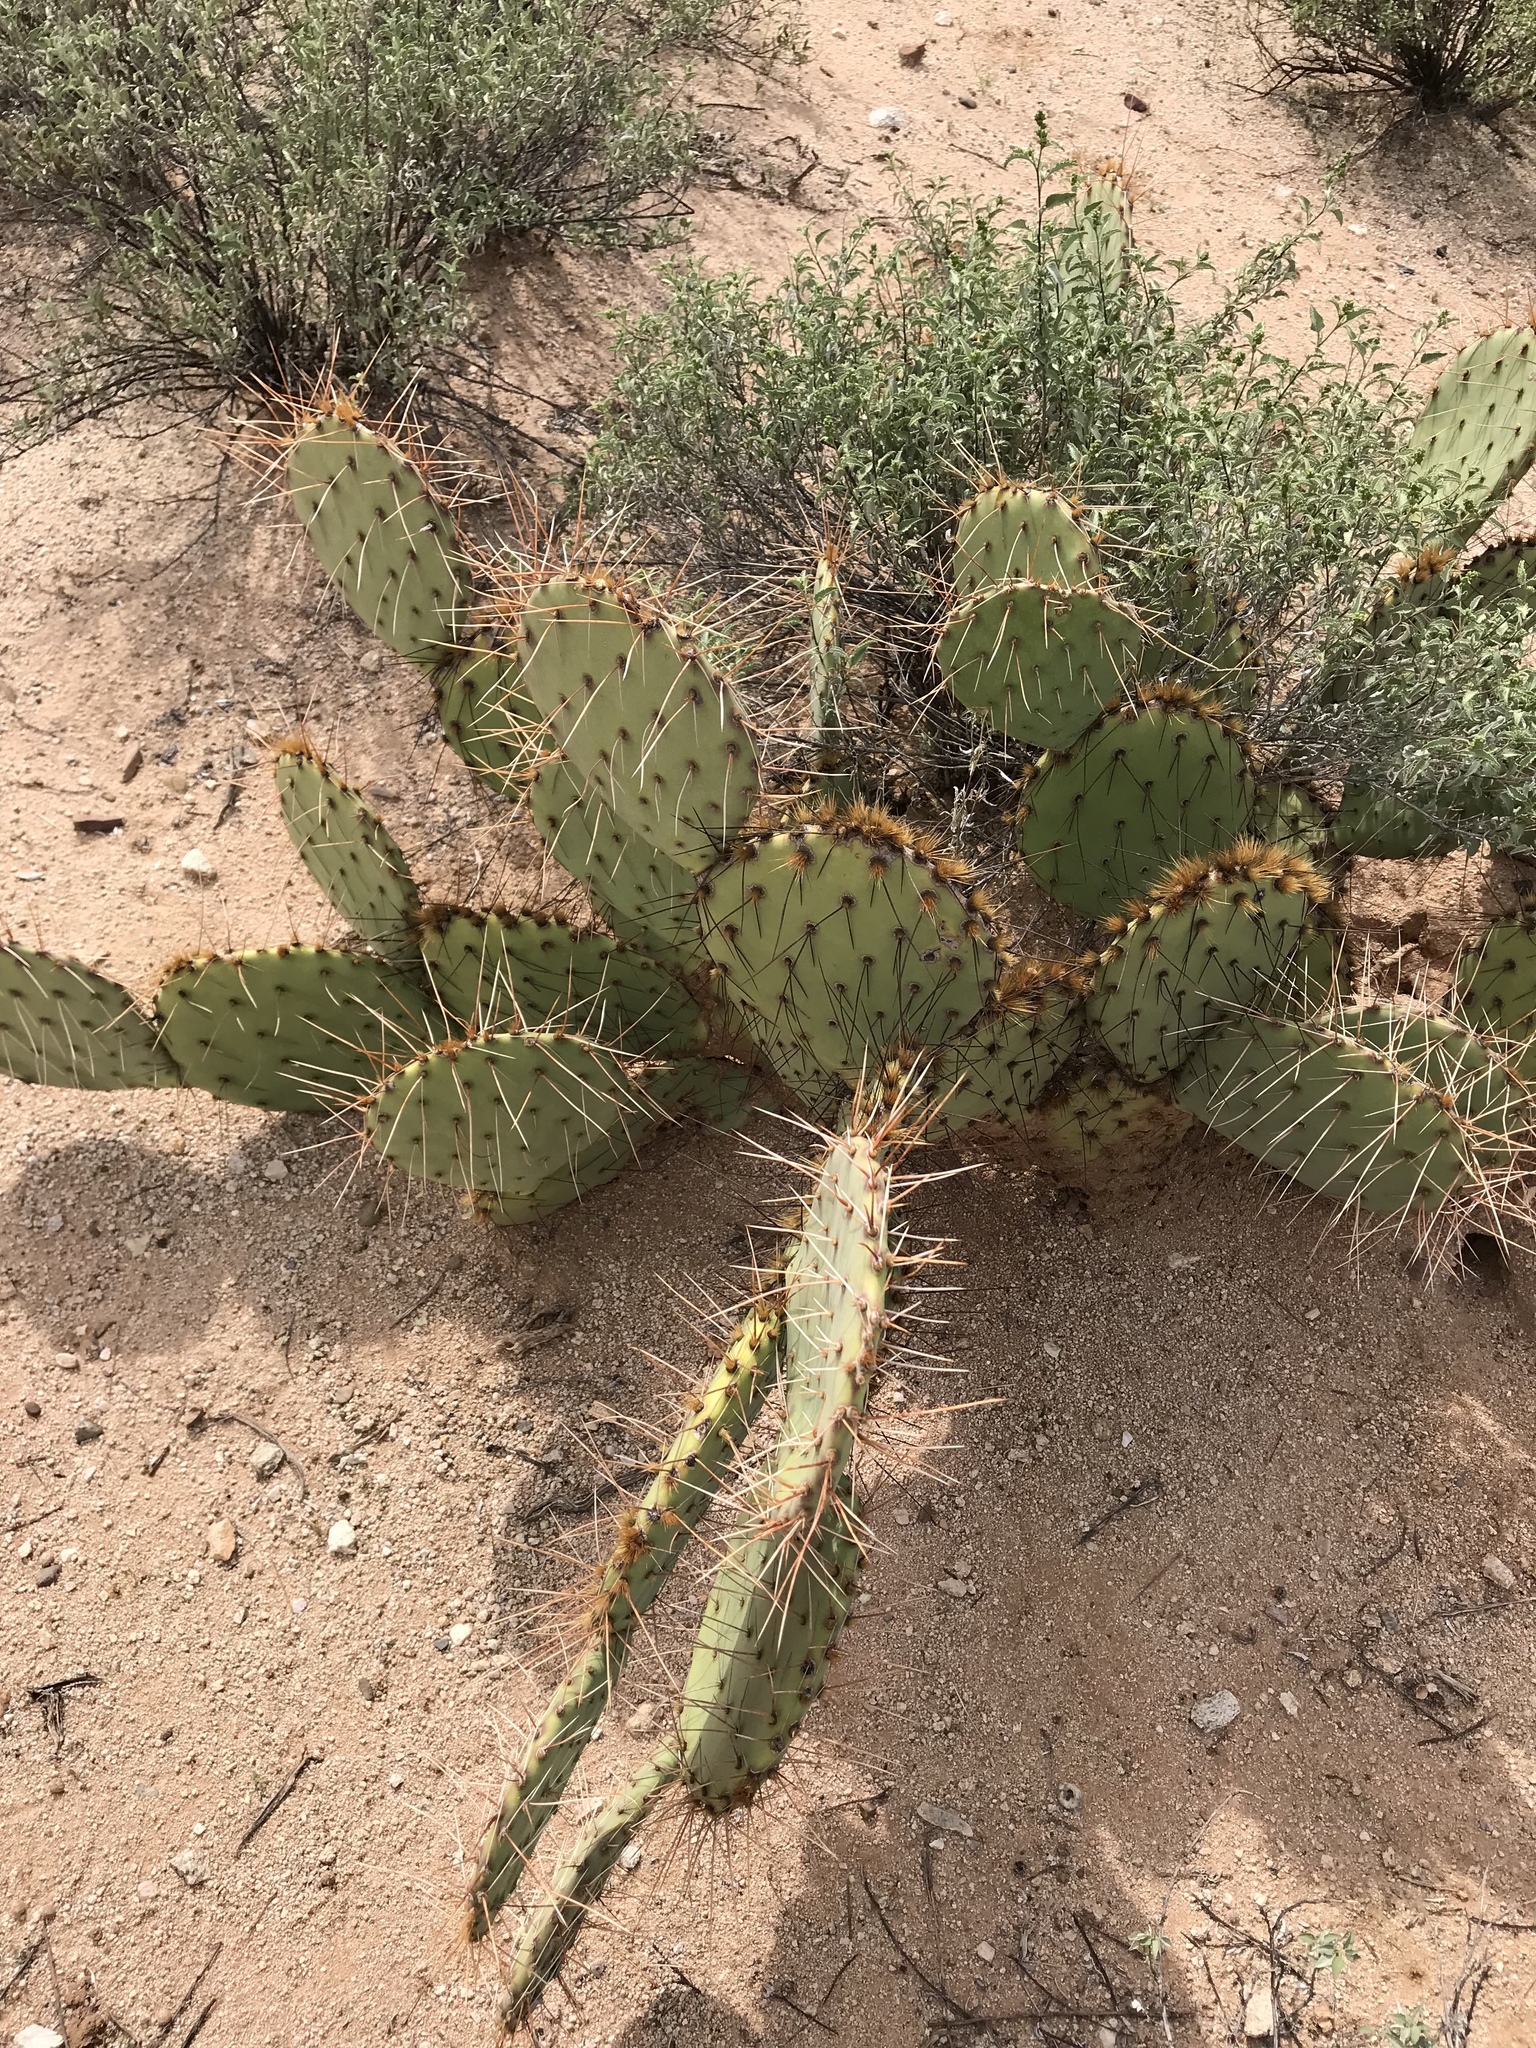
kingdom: Plantae
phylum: Tracheophyta
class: Magnoliopsida
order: Caryophyllales
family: Cactaceae
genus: Opuntia
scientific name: Opuntia phaeacantha
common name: New mexico prickly-pear
